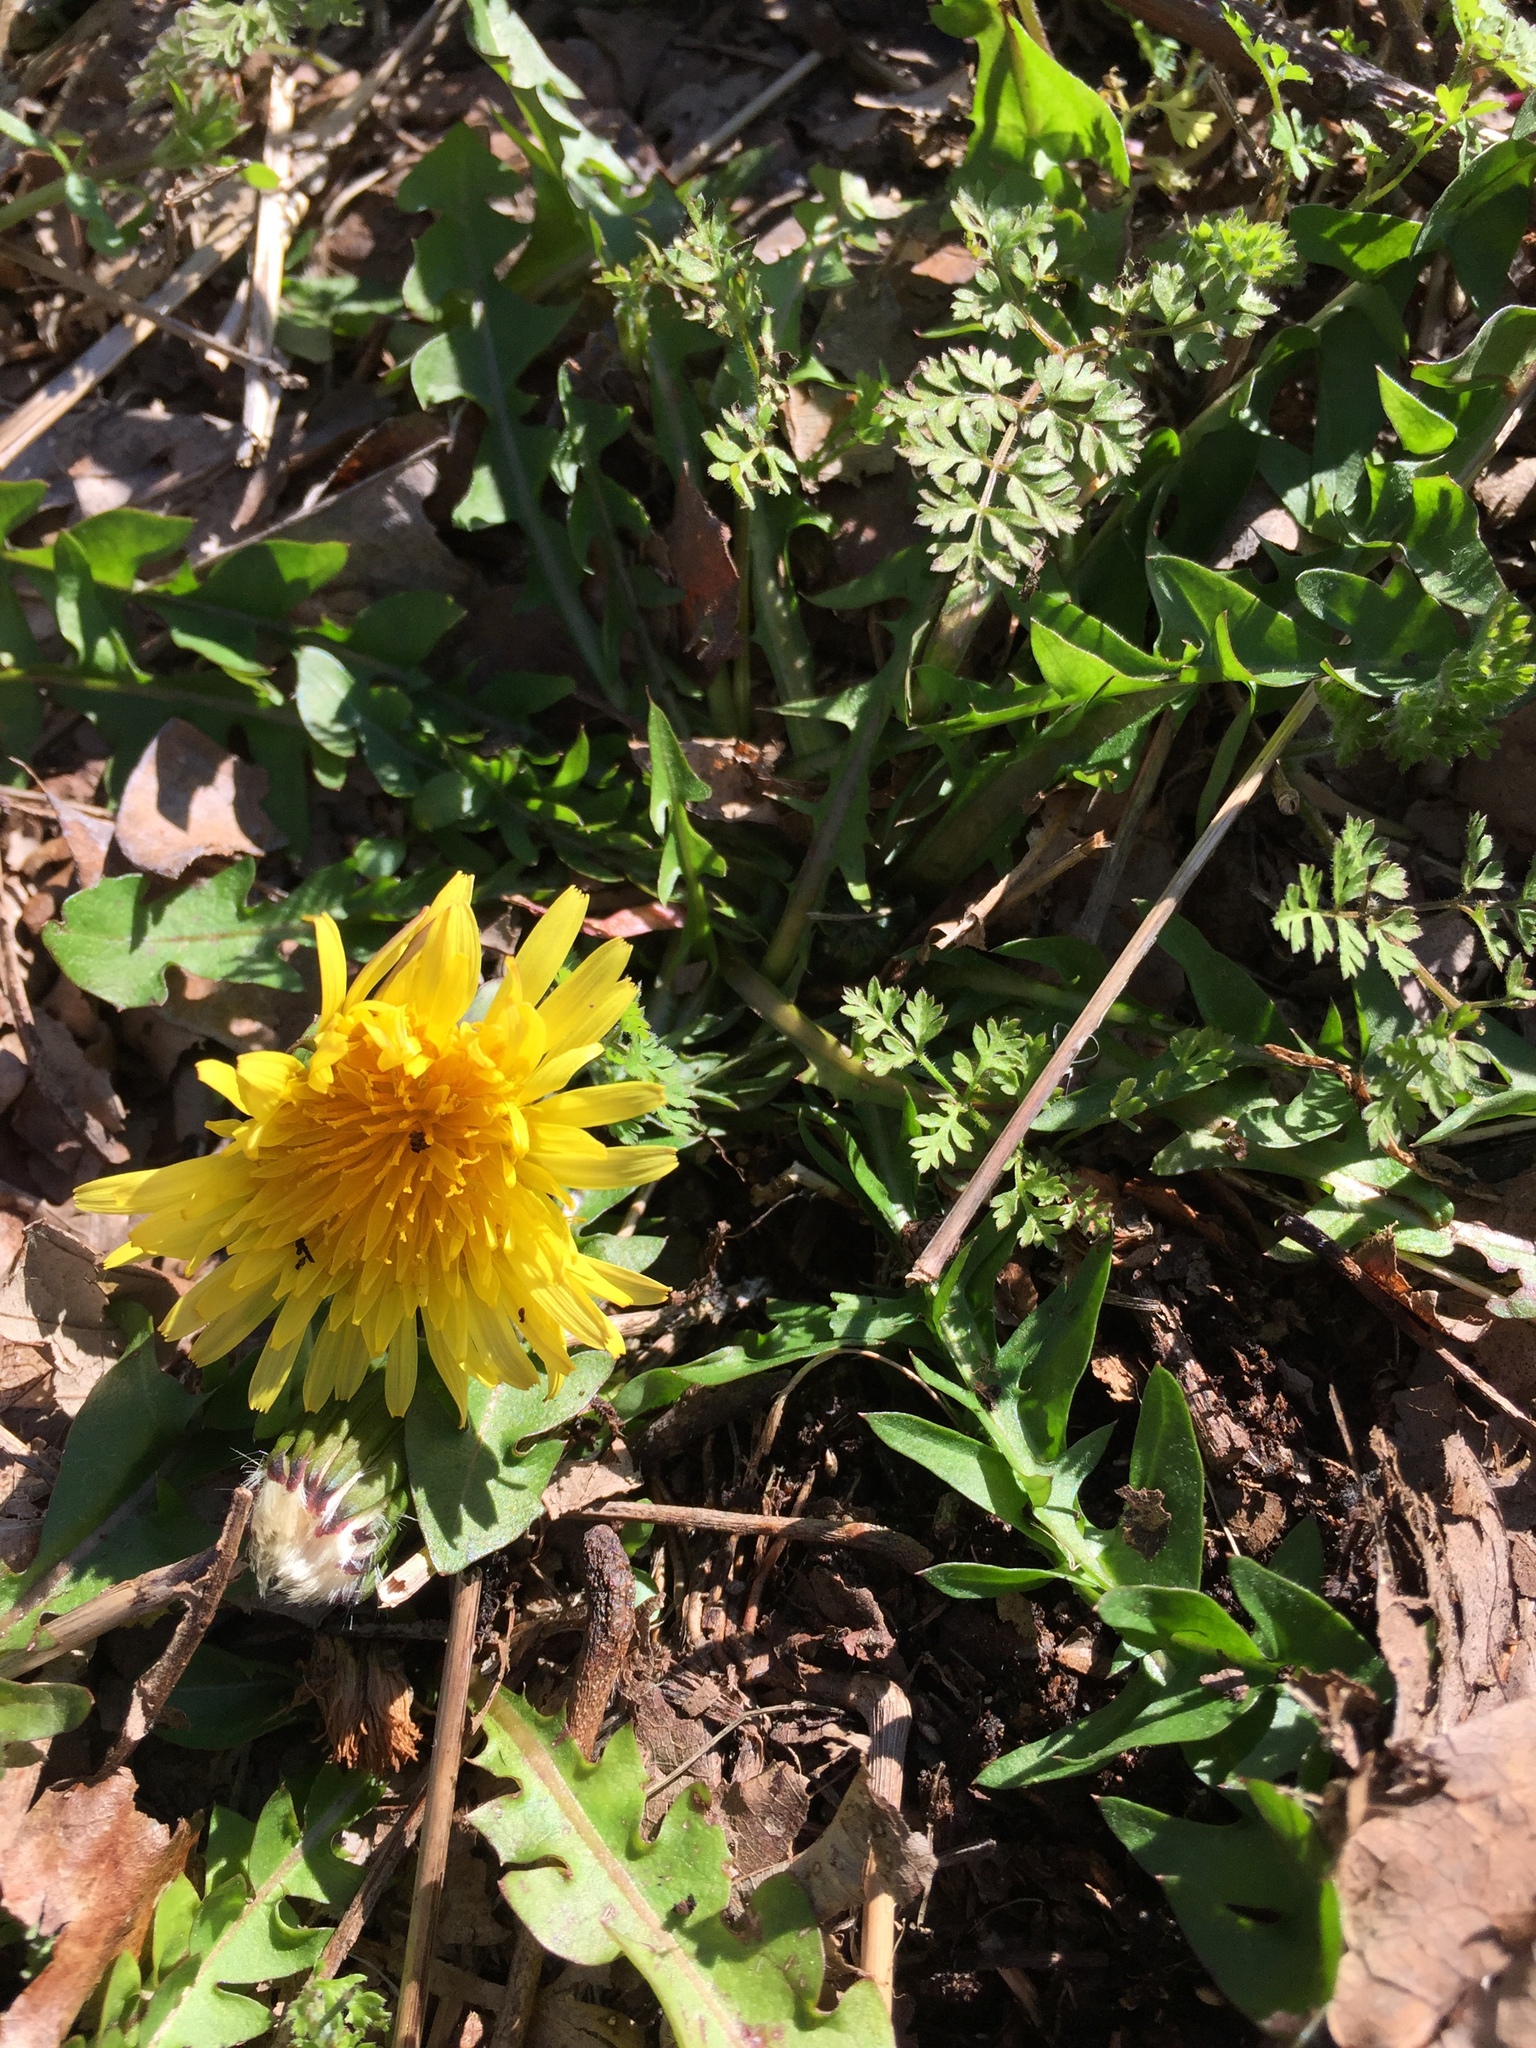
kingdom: Plantae
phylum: Tracheophyta
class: Magnoliopsida
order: Asterales
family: Asteraceae
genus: Taraxacum
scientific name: Taraxacum officinale
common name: Common dandelion
